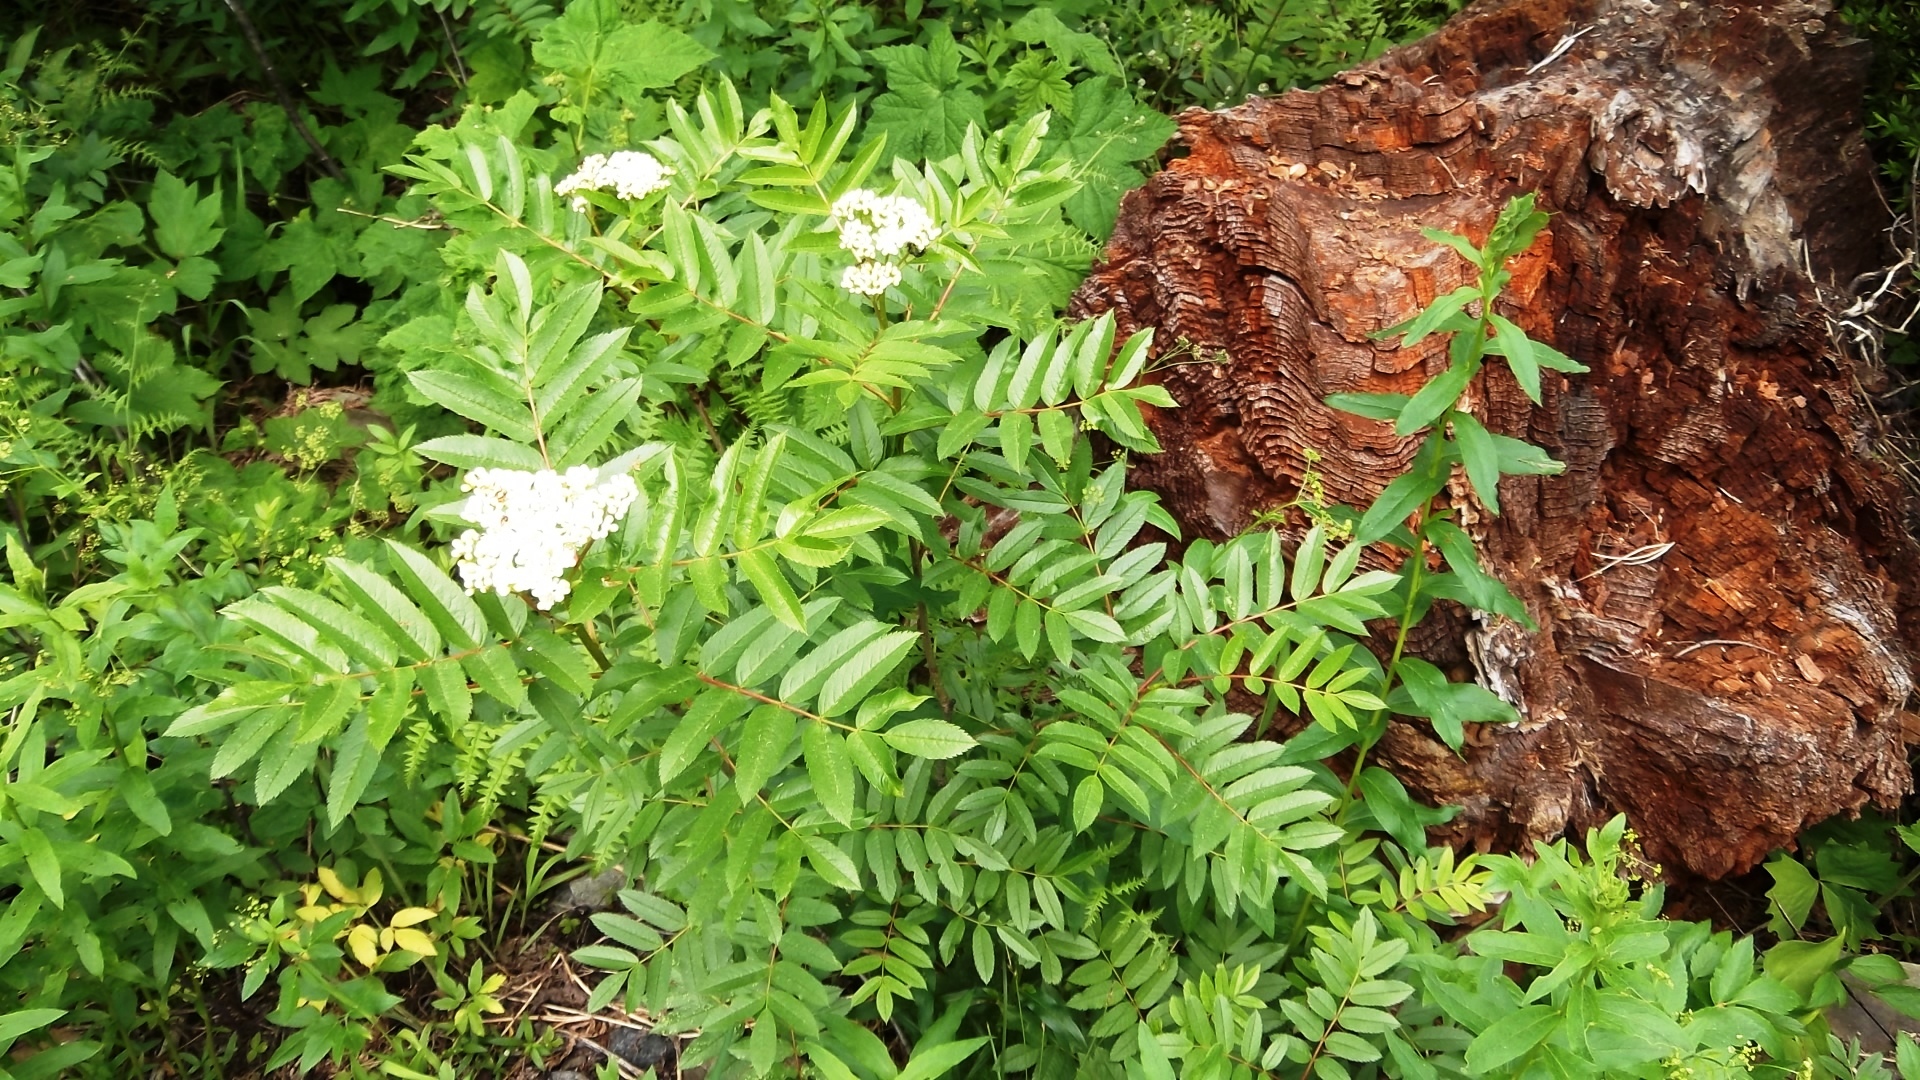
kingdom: Plantae
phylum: Tracheophyta
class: Magnoliopsida
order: Rosales
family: Rosaceae
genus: Sorbus
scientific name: Sorbus scopulina
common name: Greene's mountain-ash
